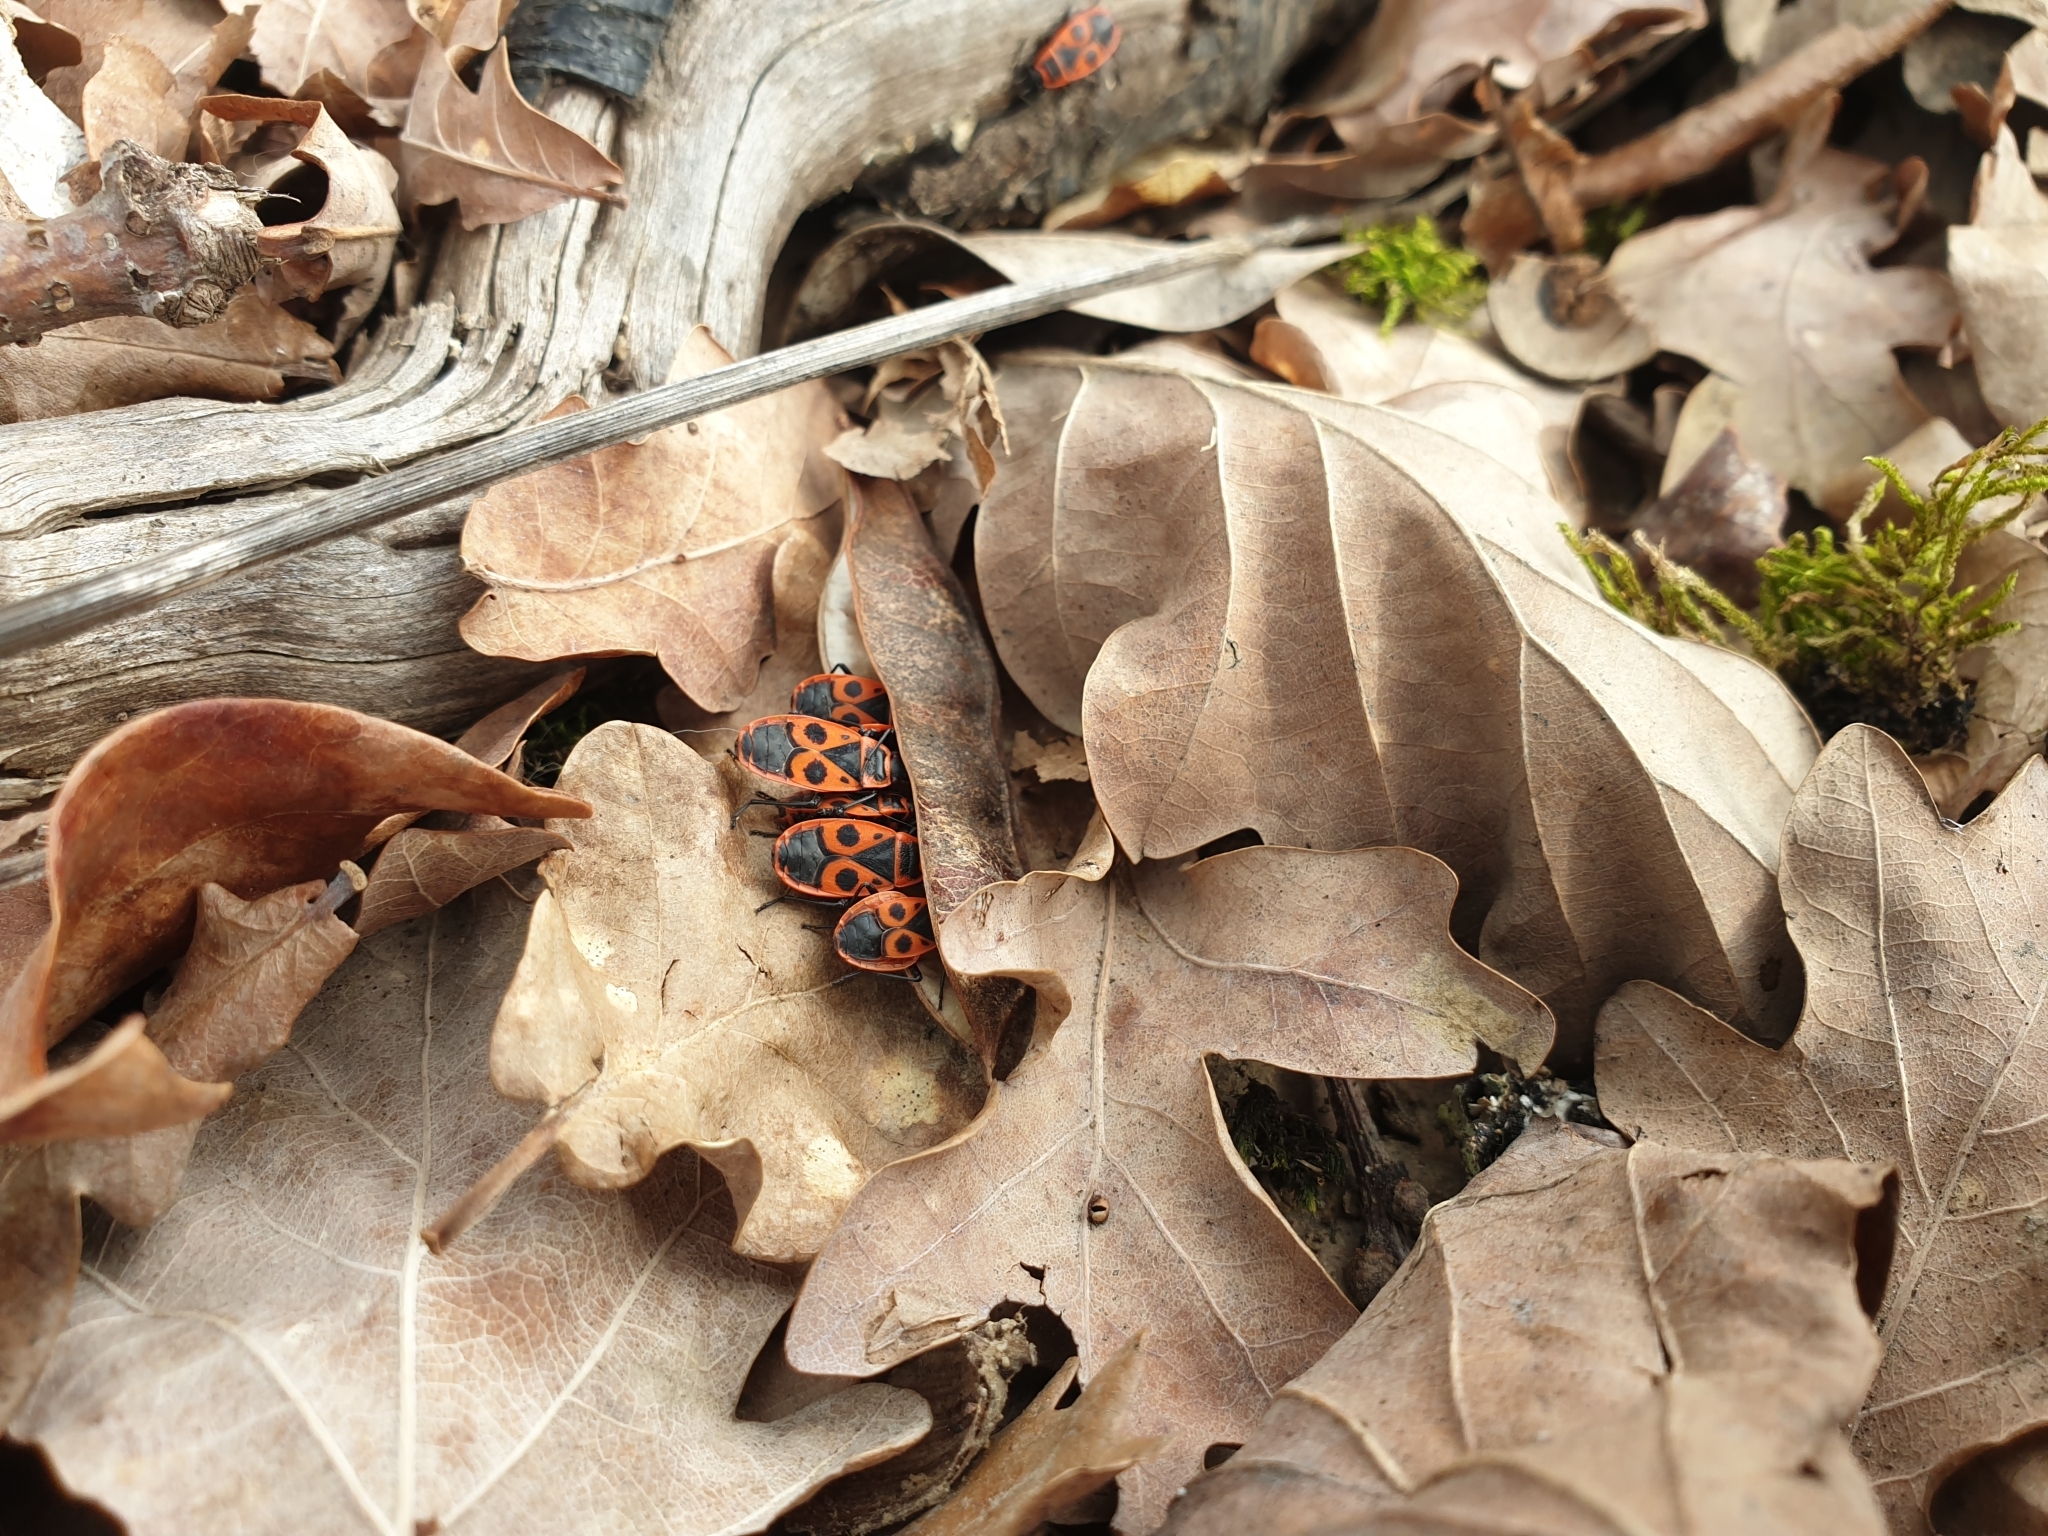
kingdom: Animalia
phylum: Arthropoda
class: Insecta
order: Hemiptera
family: Pyrrhocoridae
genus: Pyrrhocoris
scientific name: Pyrrhocoris apterus
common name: Firebug
